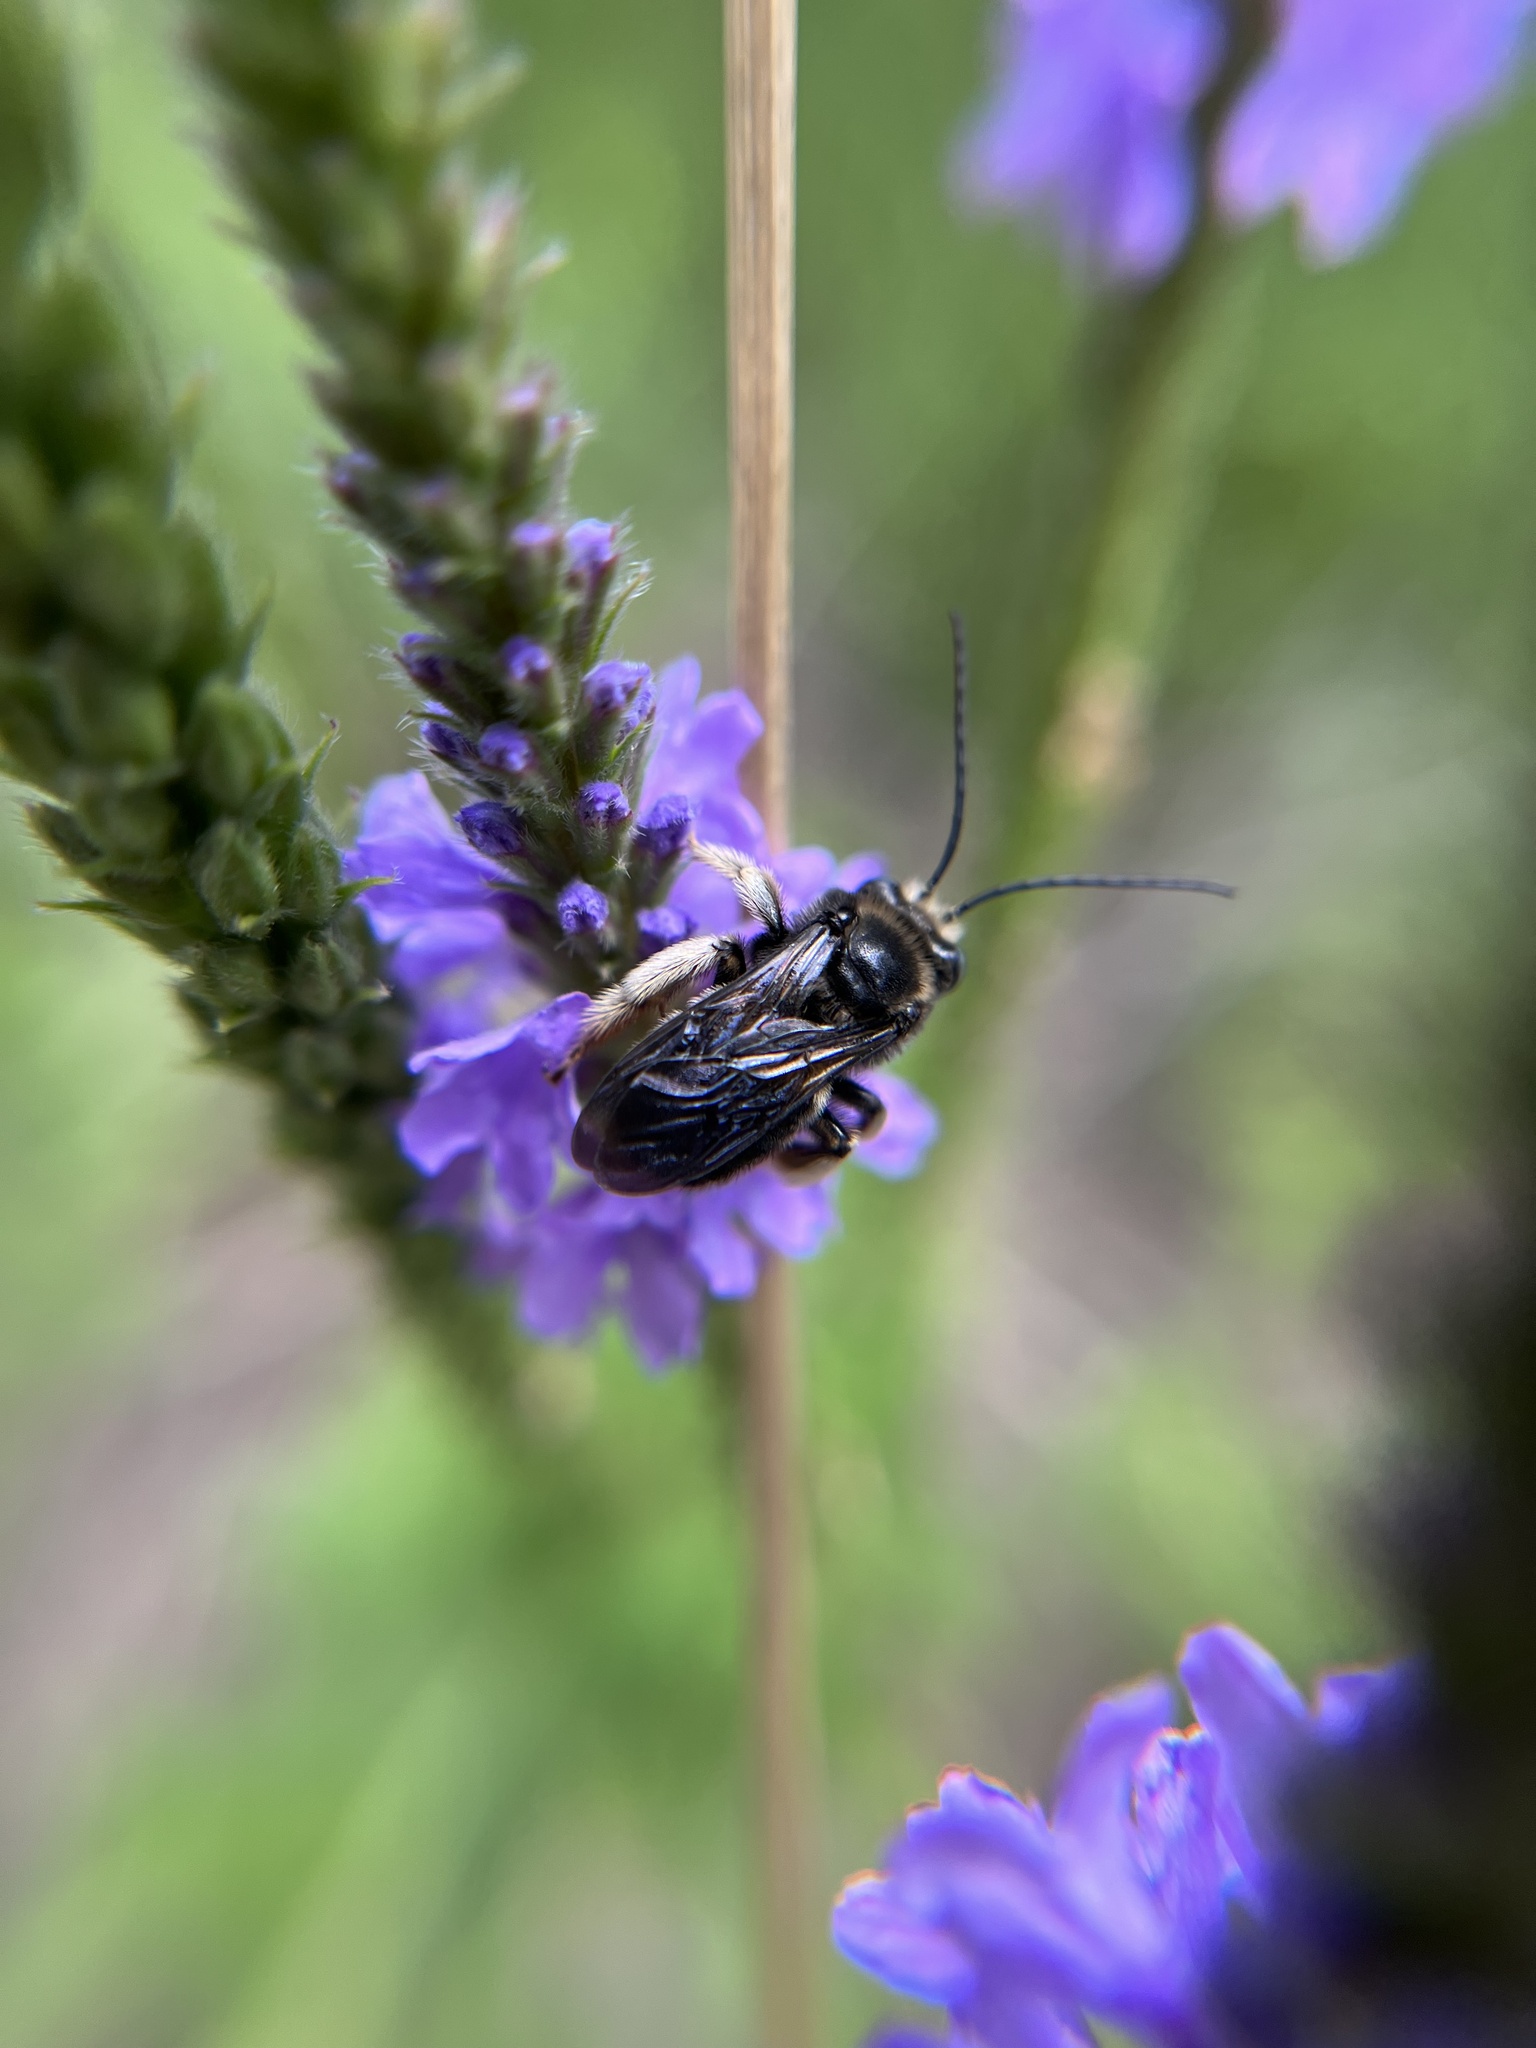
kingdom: Animalia
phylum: Arthropoda
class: Insecta
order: Hymenoptera
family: Apidae
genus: Melissodes
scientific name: Melissodes bimaculatus
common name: Two-spotted long-horned bee
